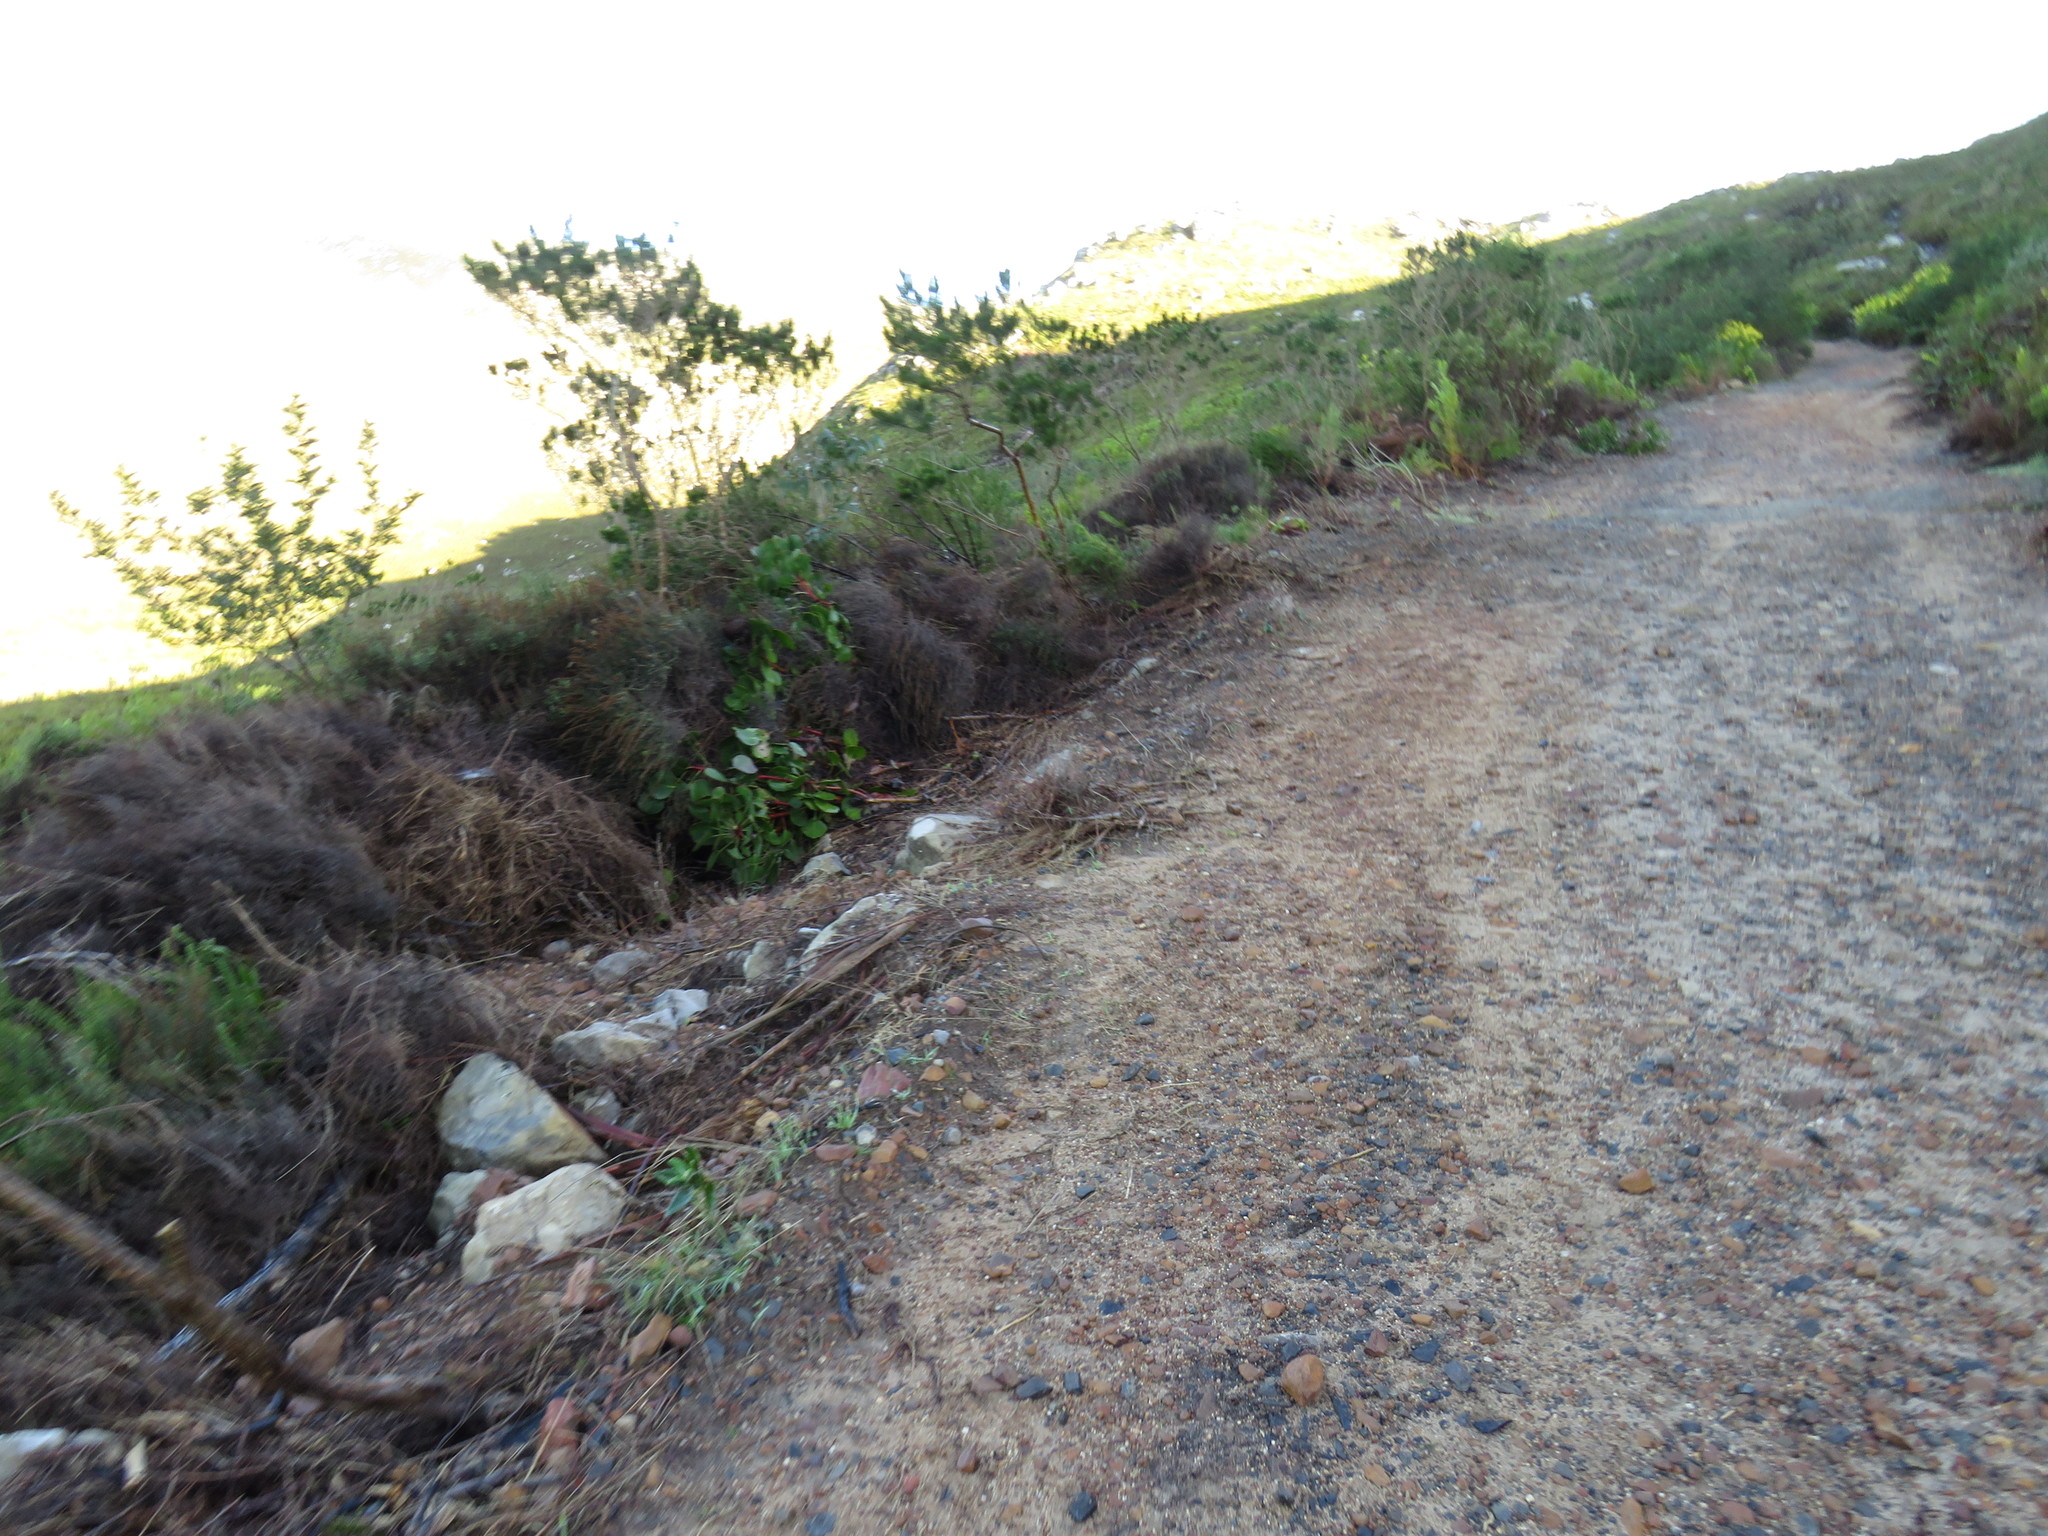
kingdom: Plantae
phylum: Tracheophyta
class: Magnoliopsida
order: Proteales
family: Proteaceae
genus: Protea
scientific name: Protea cynaroides
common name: King protea
